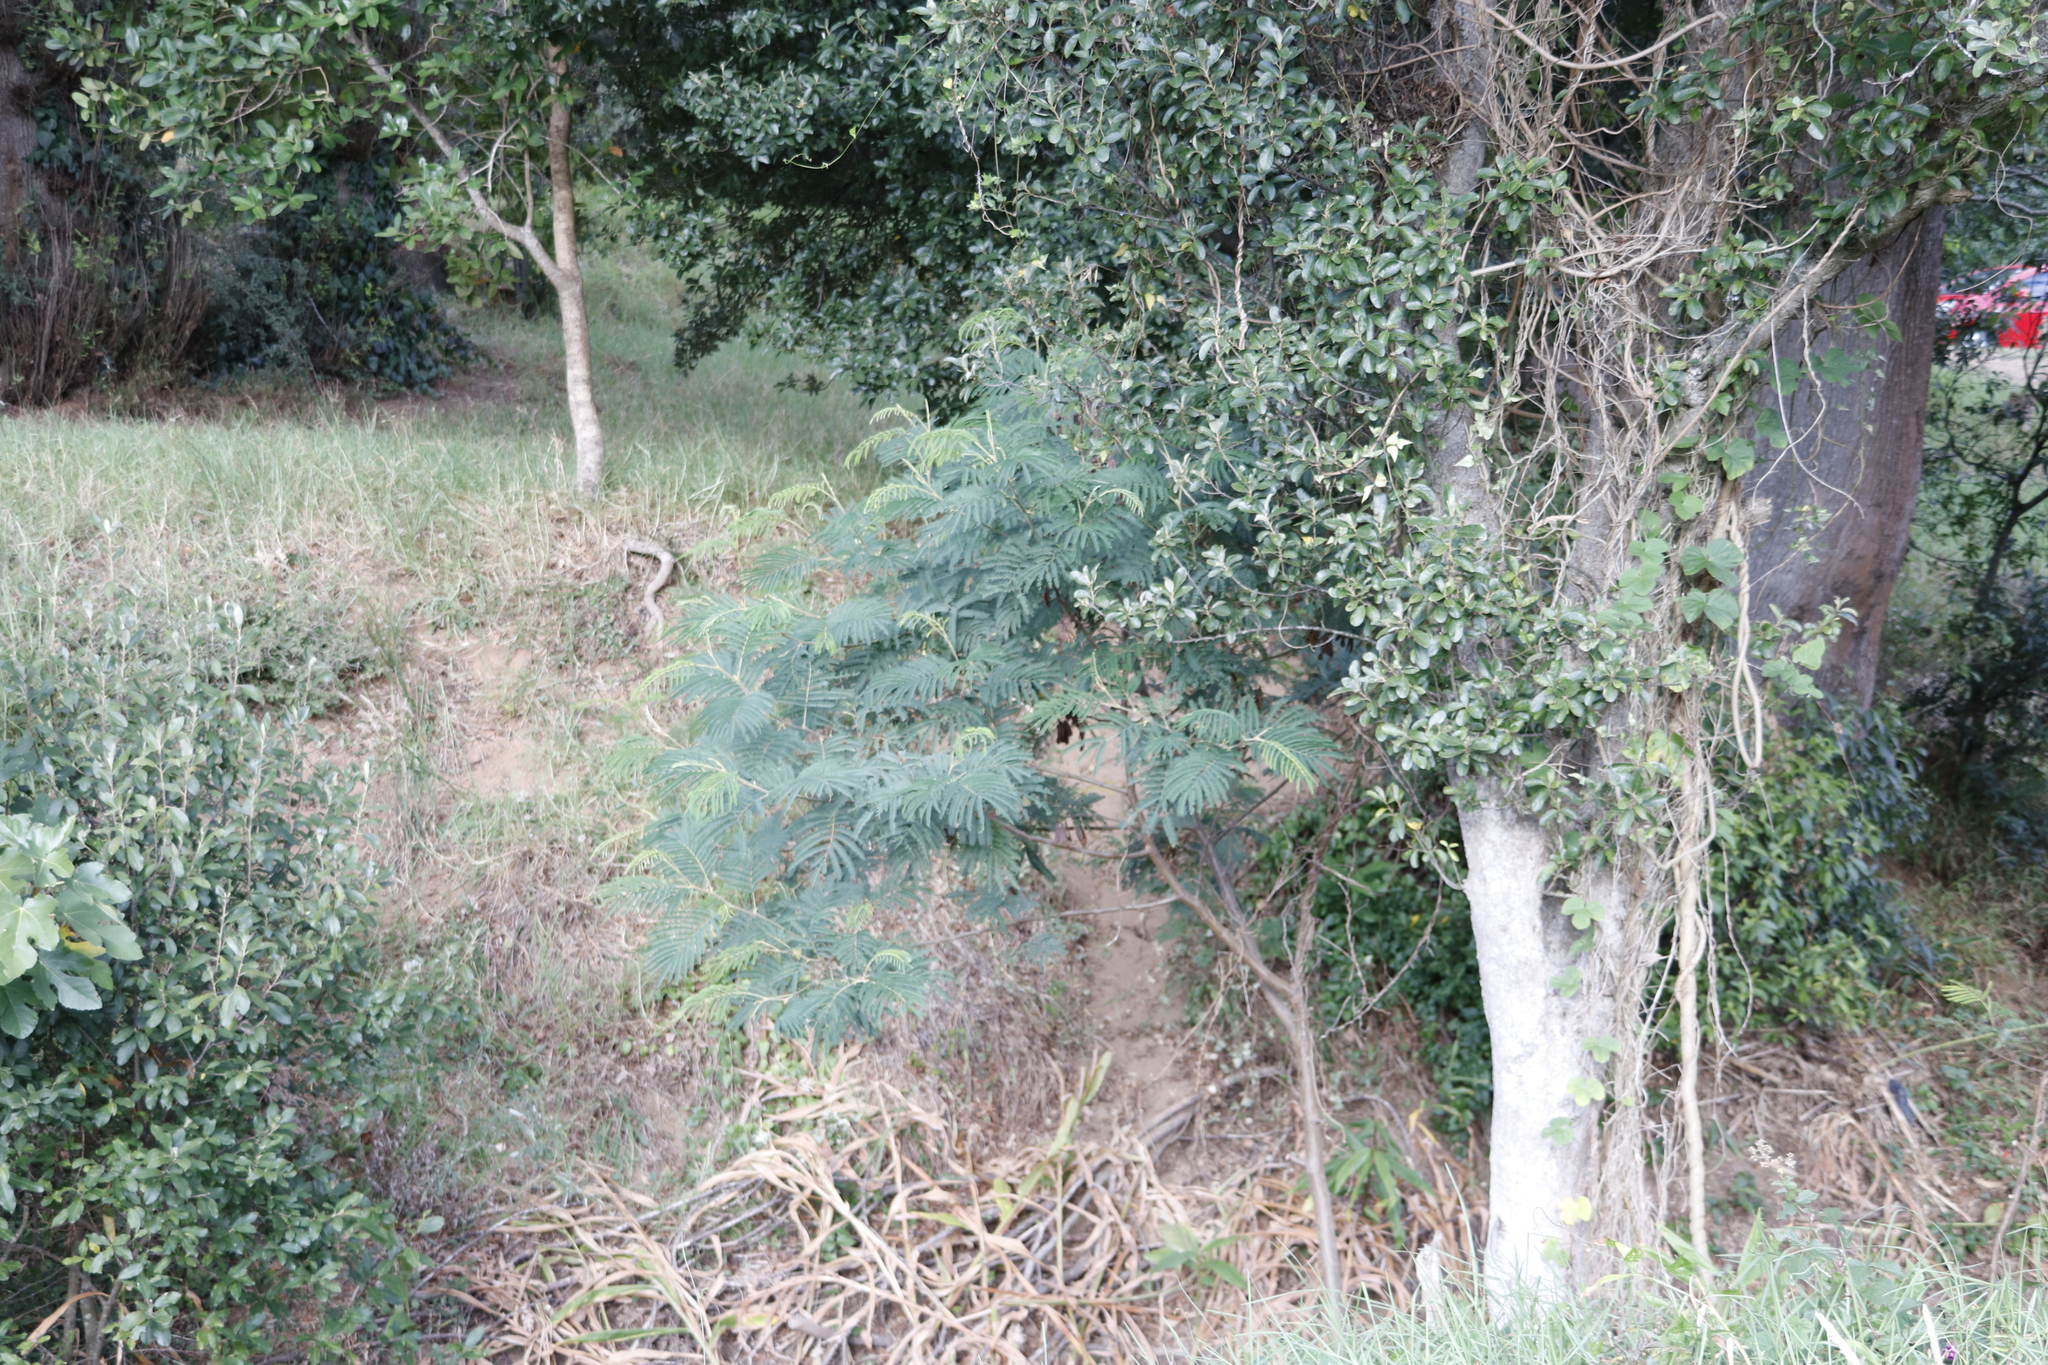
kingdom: Plantae
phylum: Tracheophyta
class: Magnoliopsida
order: Fabales
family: Fabaceae
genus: Acacia
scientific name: Acacia mearnsii
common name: Black wattle
